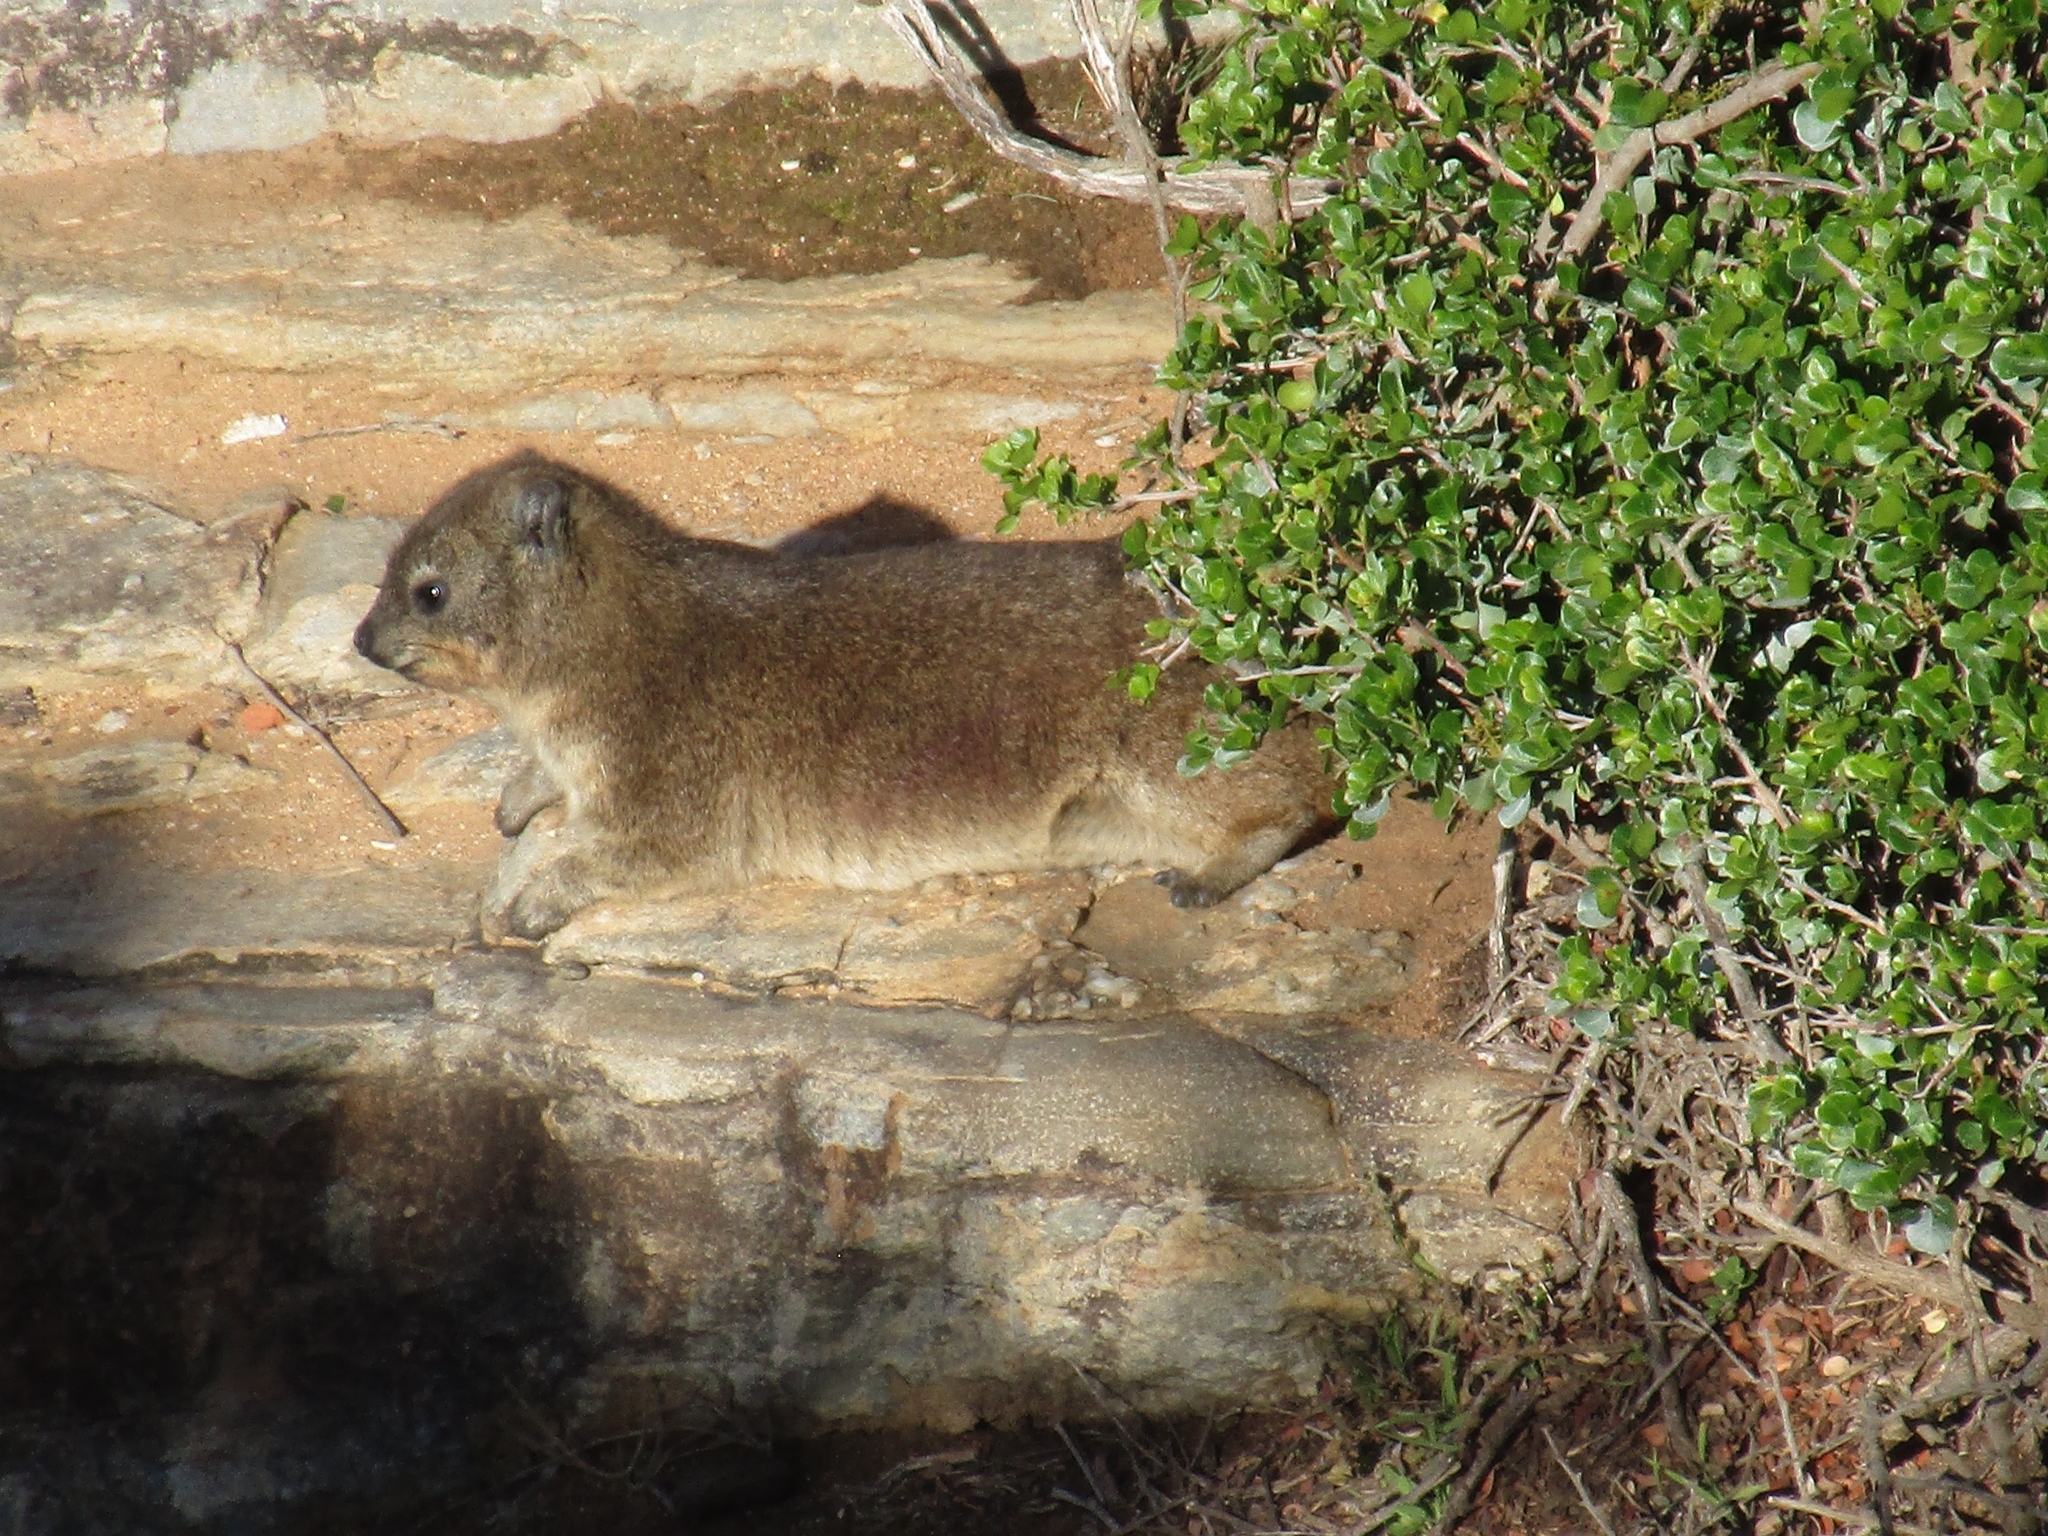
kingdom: Animalia
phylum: Chordata
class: Mammalia
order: Hyracoidea
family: Procaviidae
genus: Procavia
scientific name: Procavia capensis
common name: Rock hyrax
